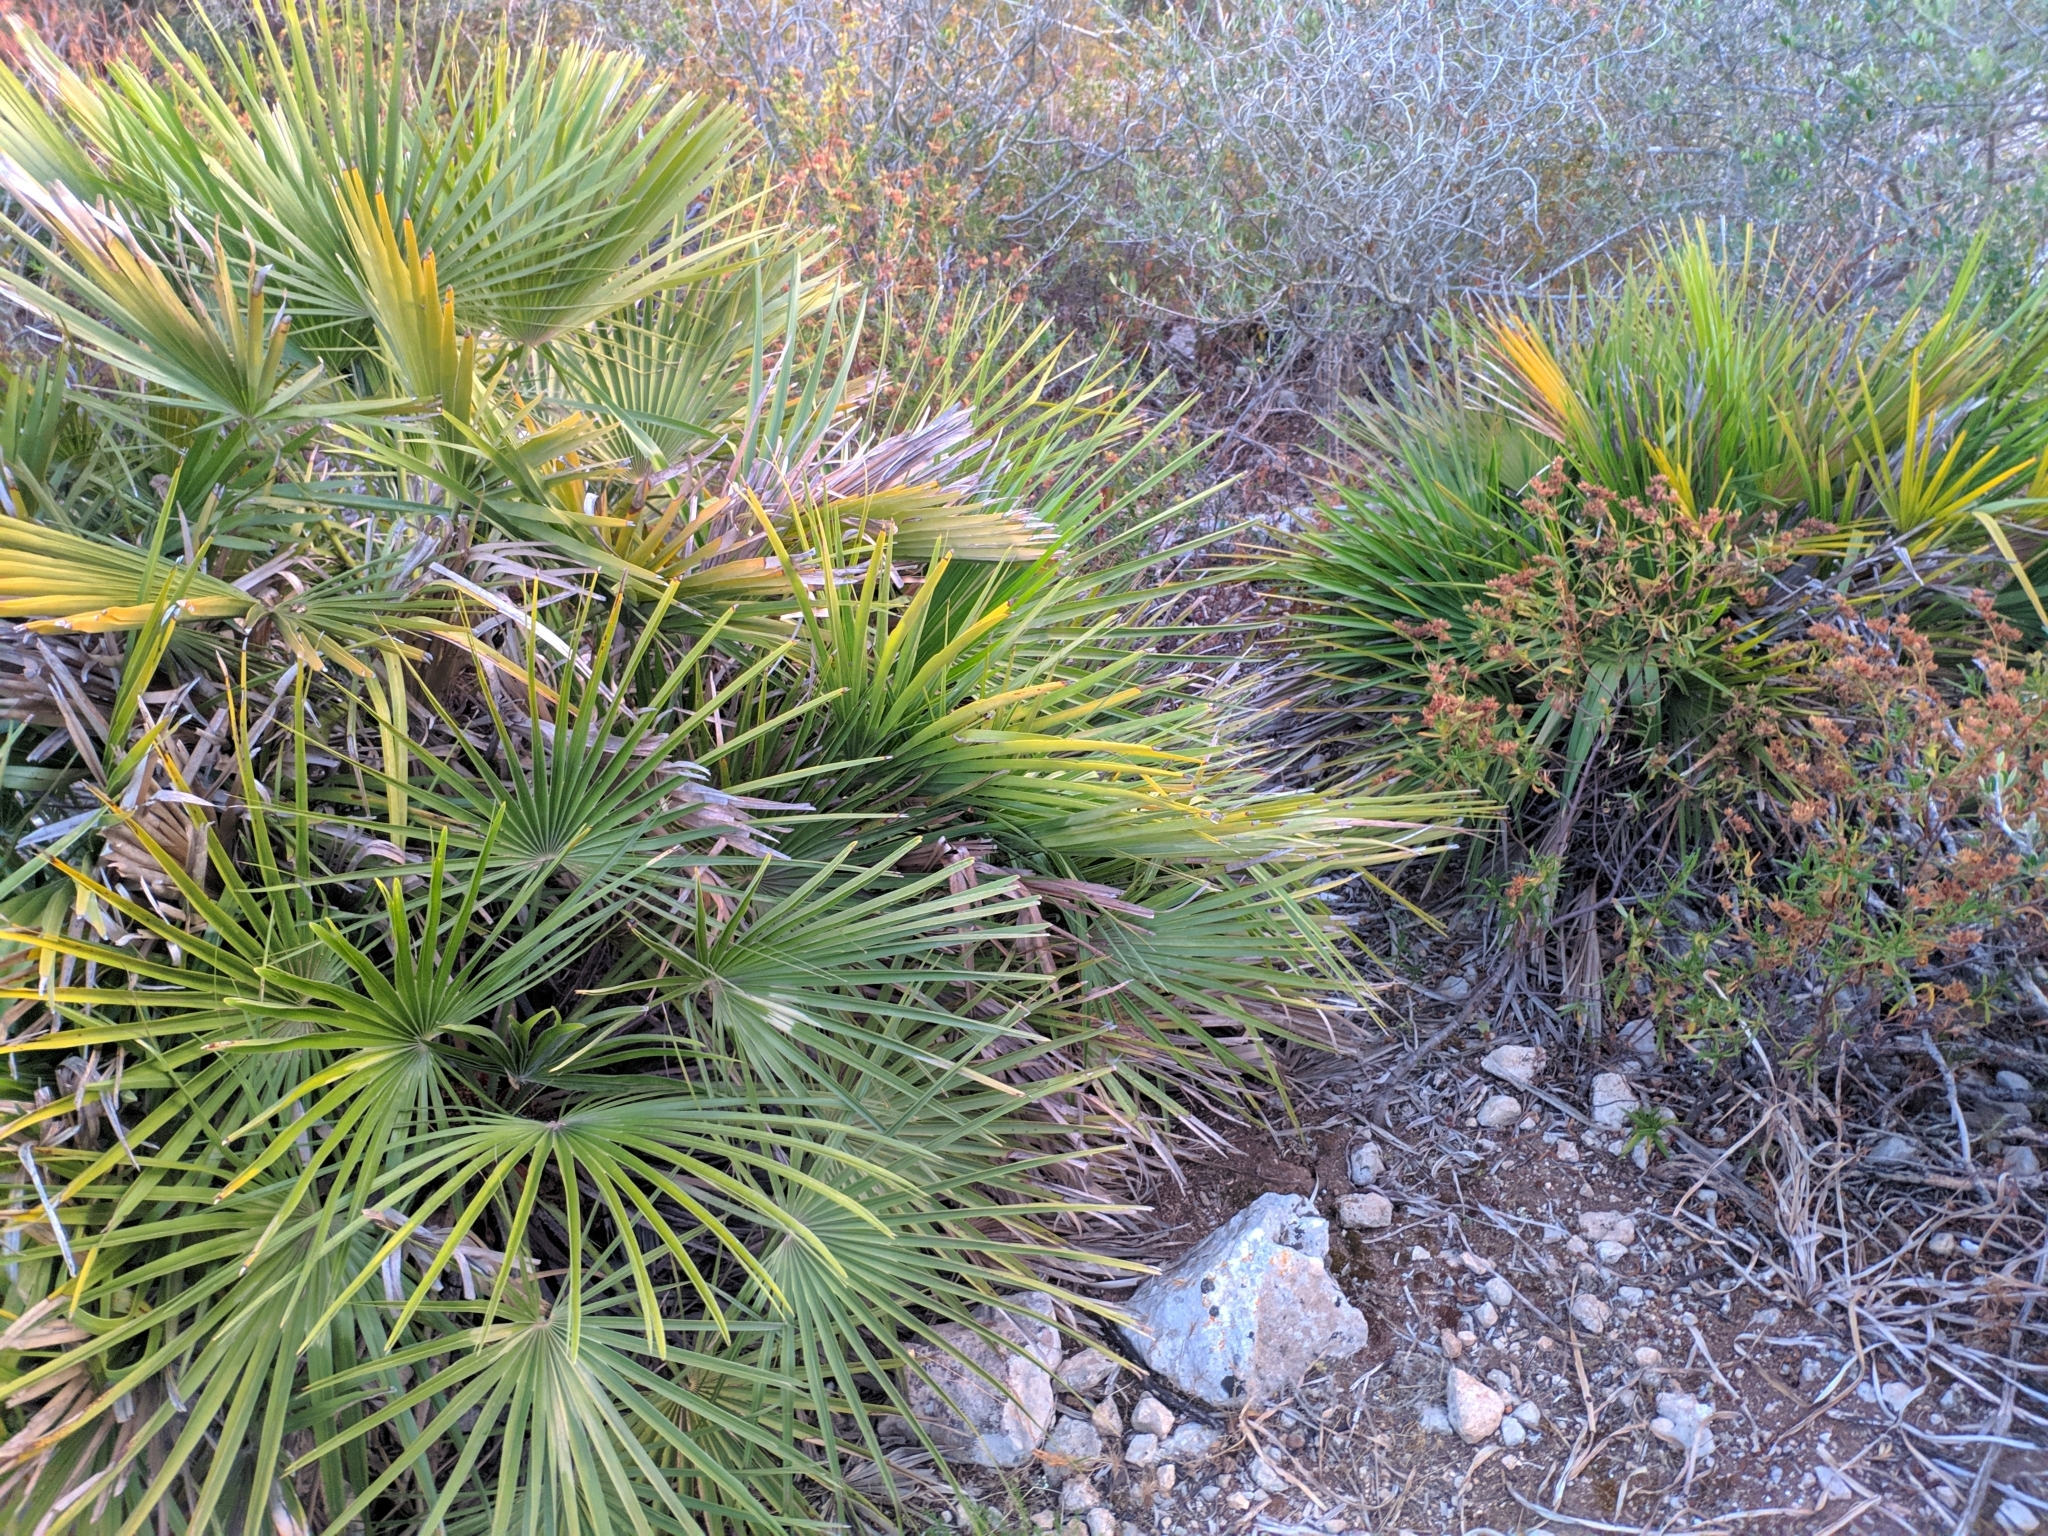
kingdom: Plantae
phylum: Tracheophyta
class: Liliopsida
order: Arecales
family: Arecaceae
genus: Chamaerops
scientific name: Chamaerops humilis
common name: Dwarf fan palm
